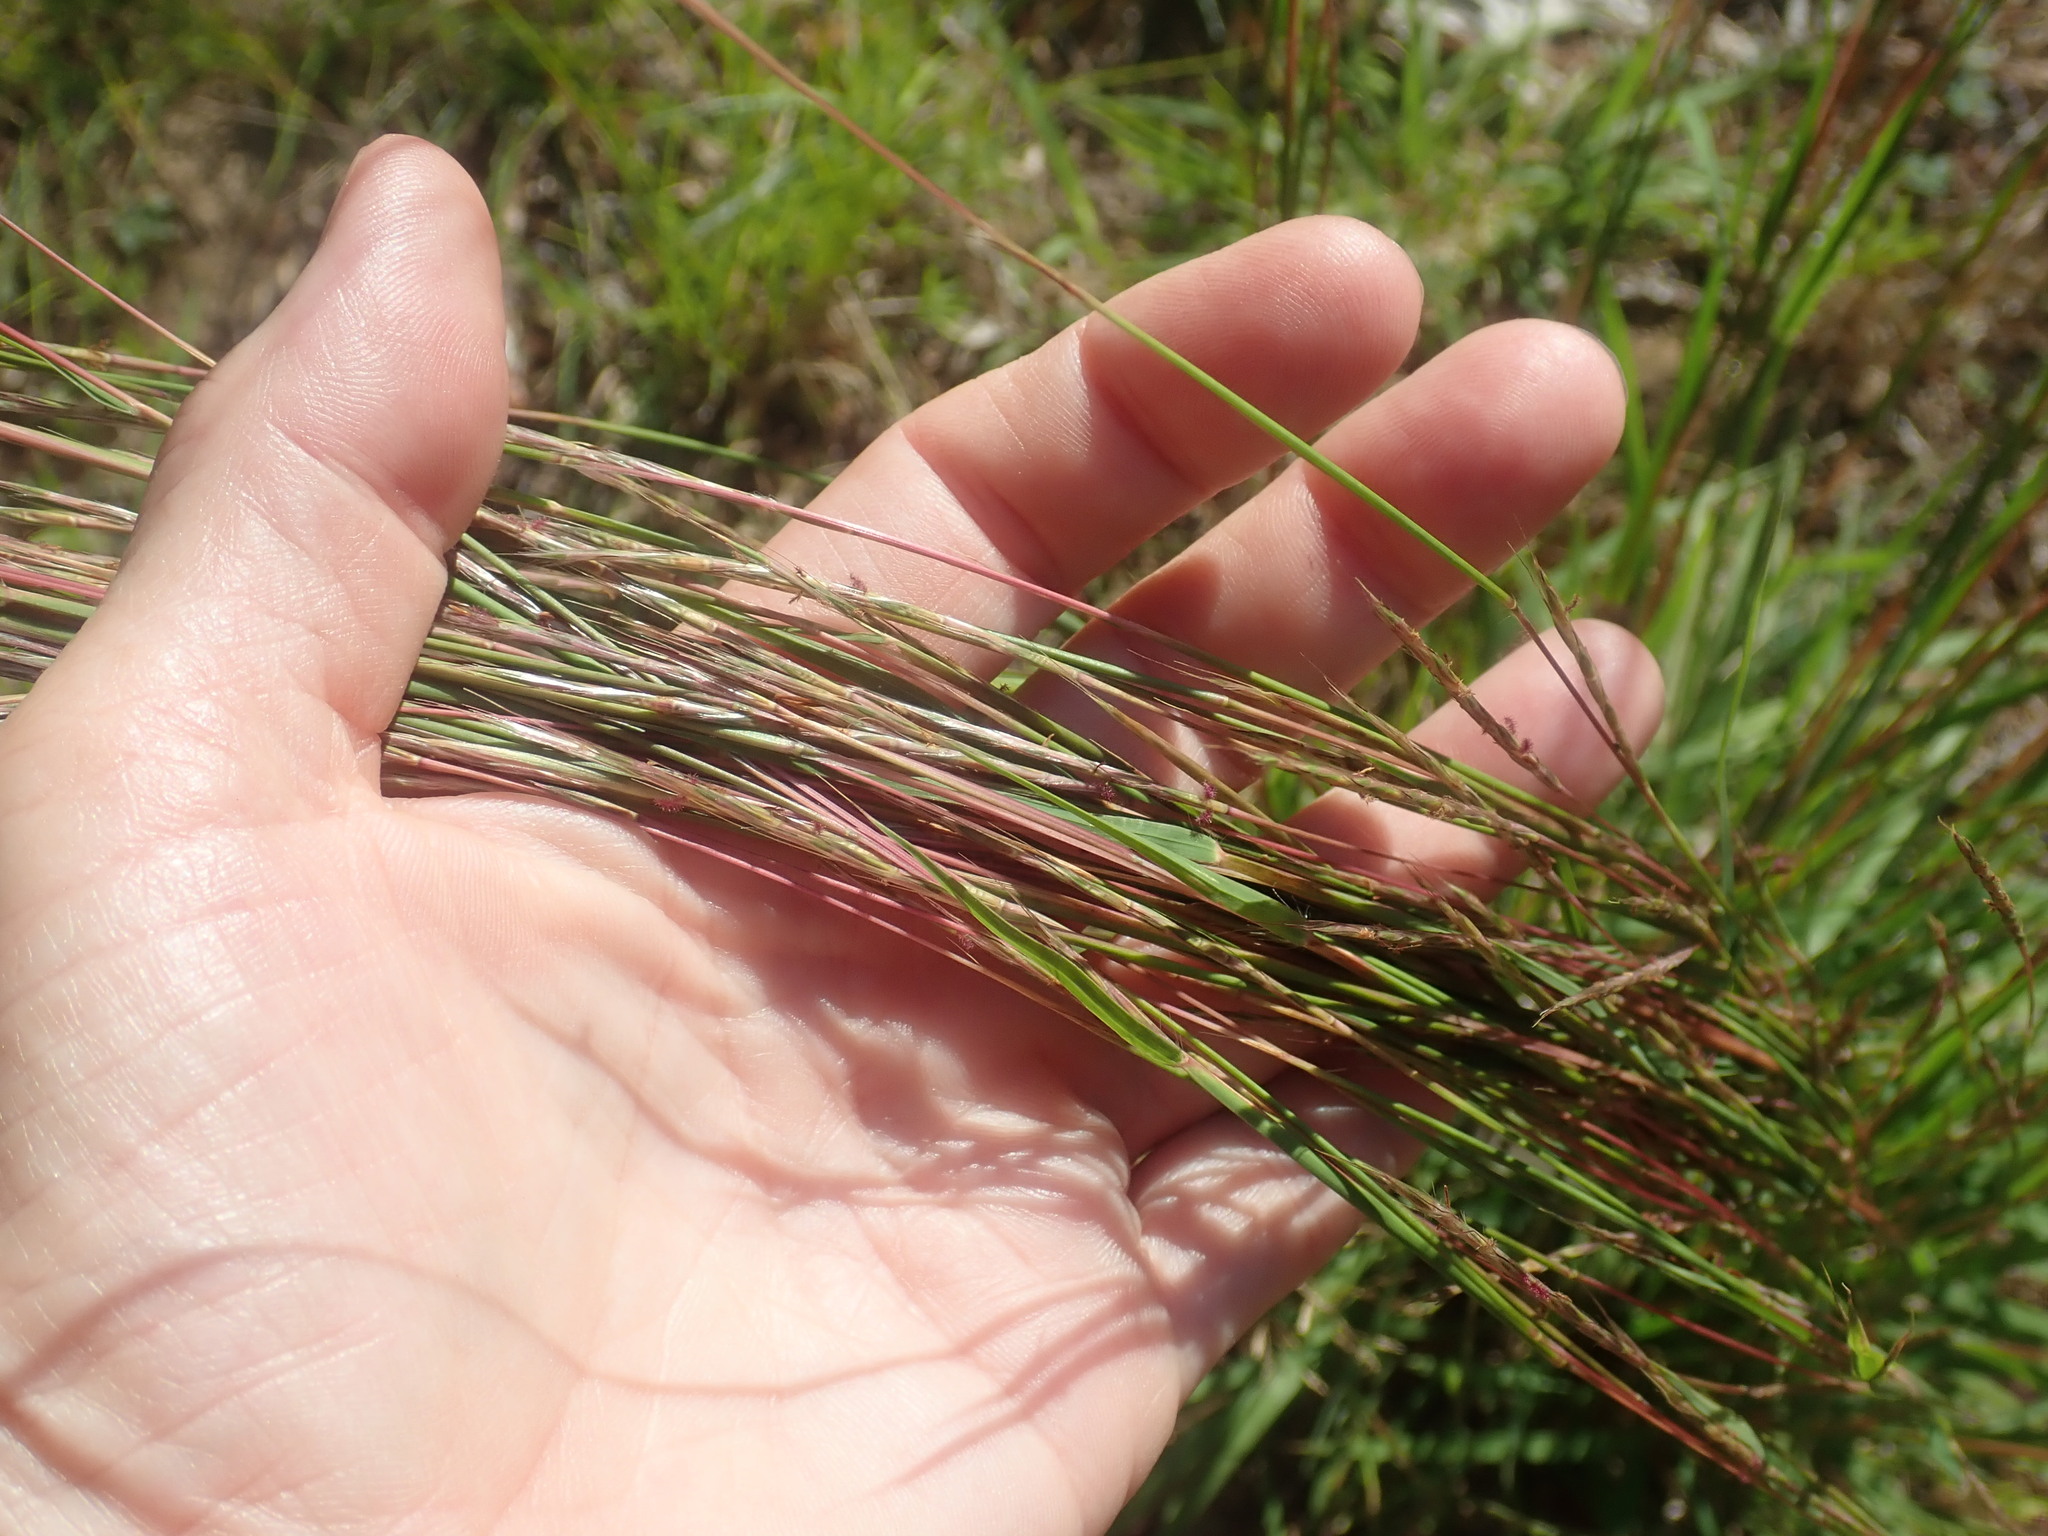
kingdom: Plantae
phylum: Tracheophyta
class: Liliopsida
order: Poales
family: Poaceae
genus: Schizachyrium
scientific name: Schizachyrium scoparium
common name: Little bluestem
